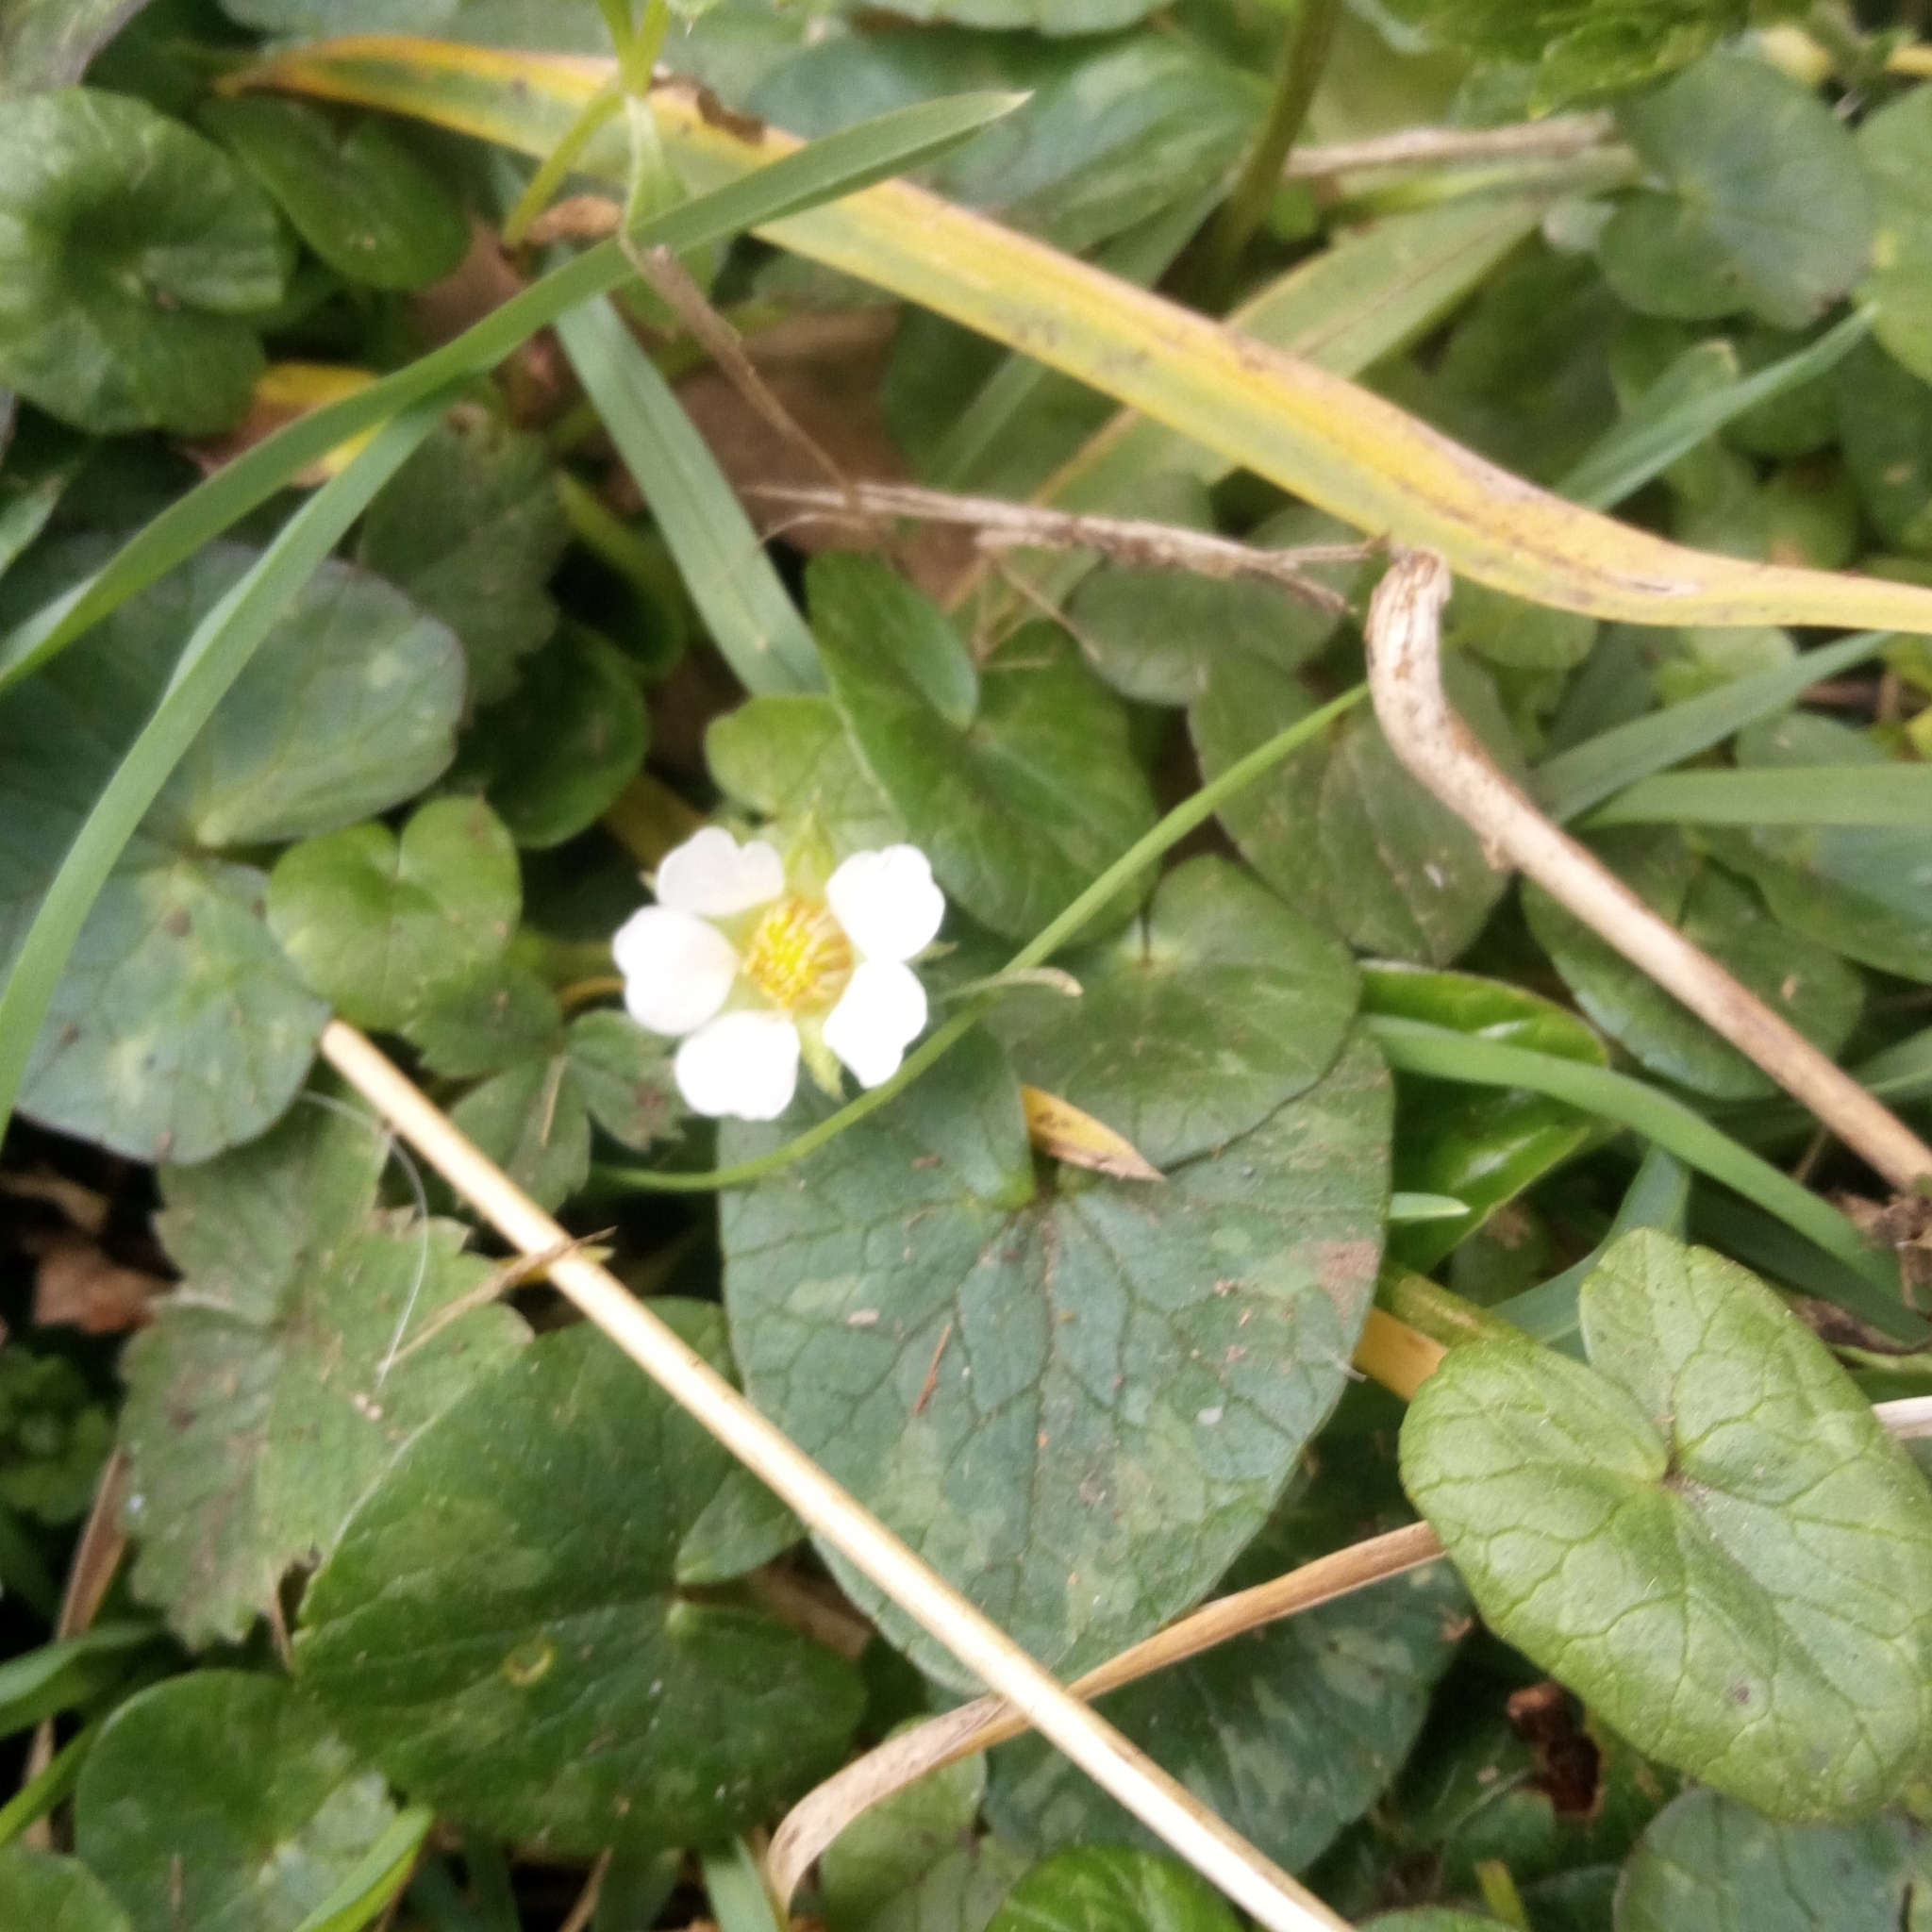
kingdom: Plantae
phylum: Tracheophyta
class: Magnoliopsida
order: Rosales
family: Rosaceae
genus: Potentilla
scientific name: Potentilla sterilis
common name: Barren strawberry
